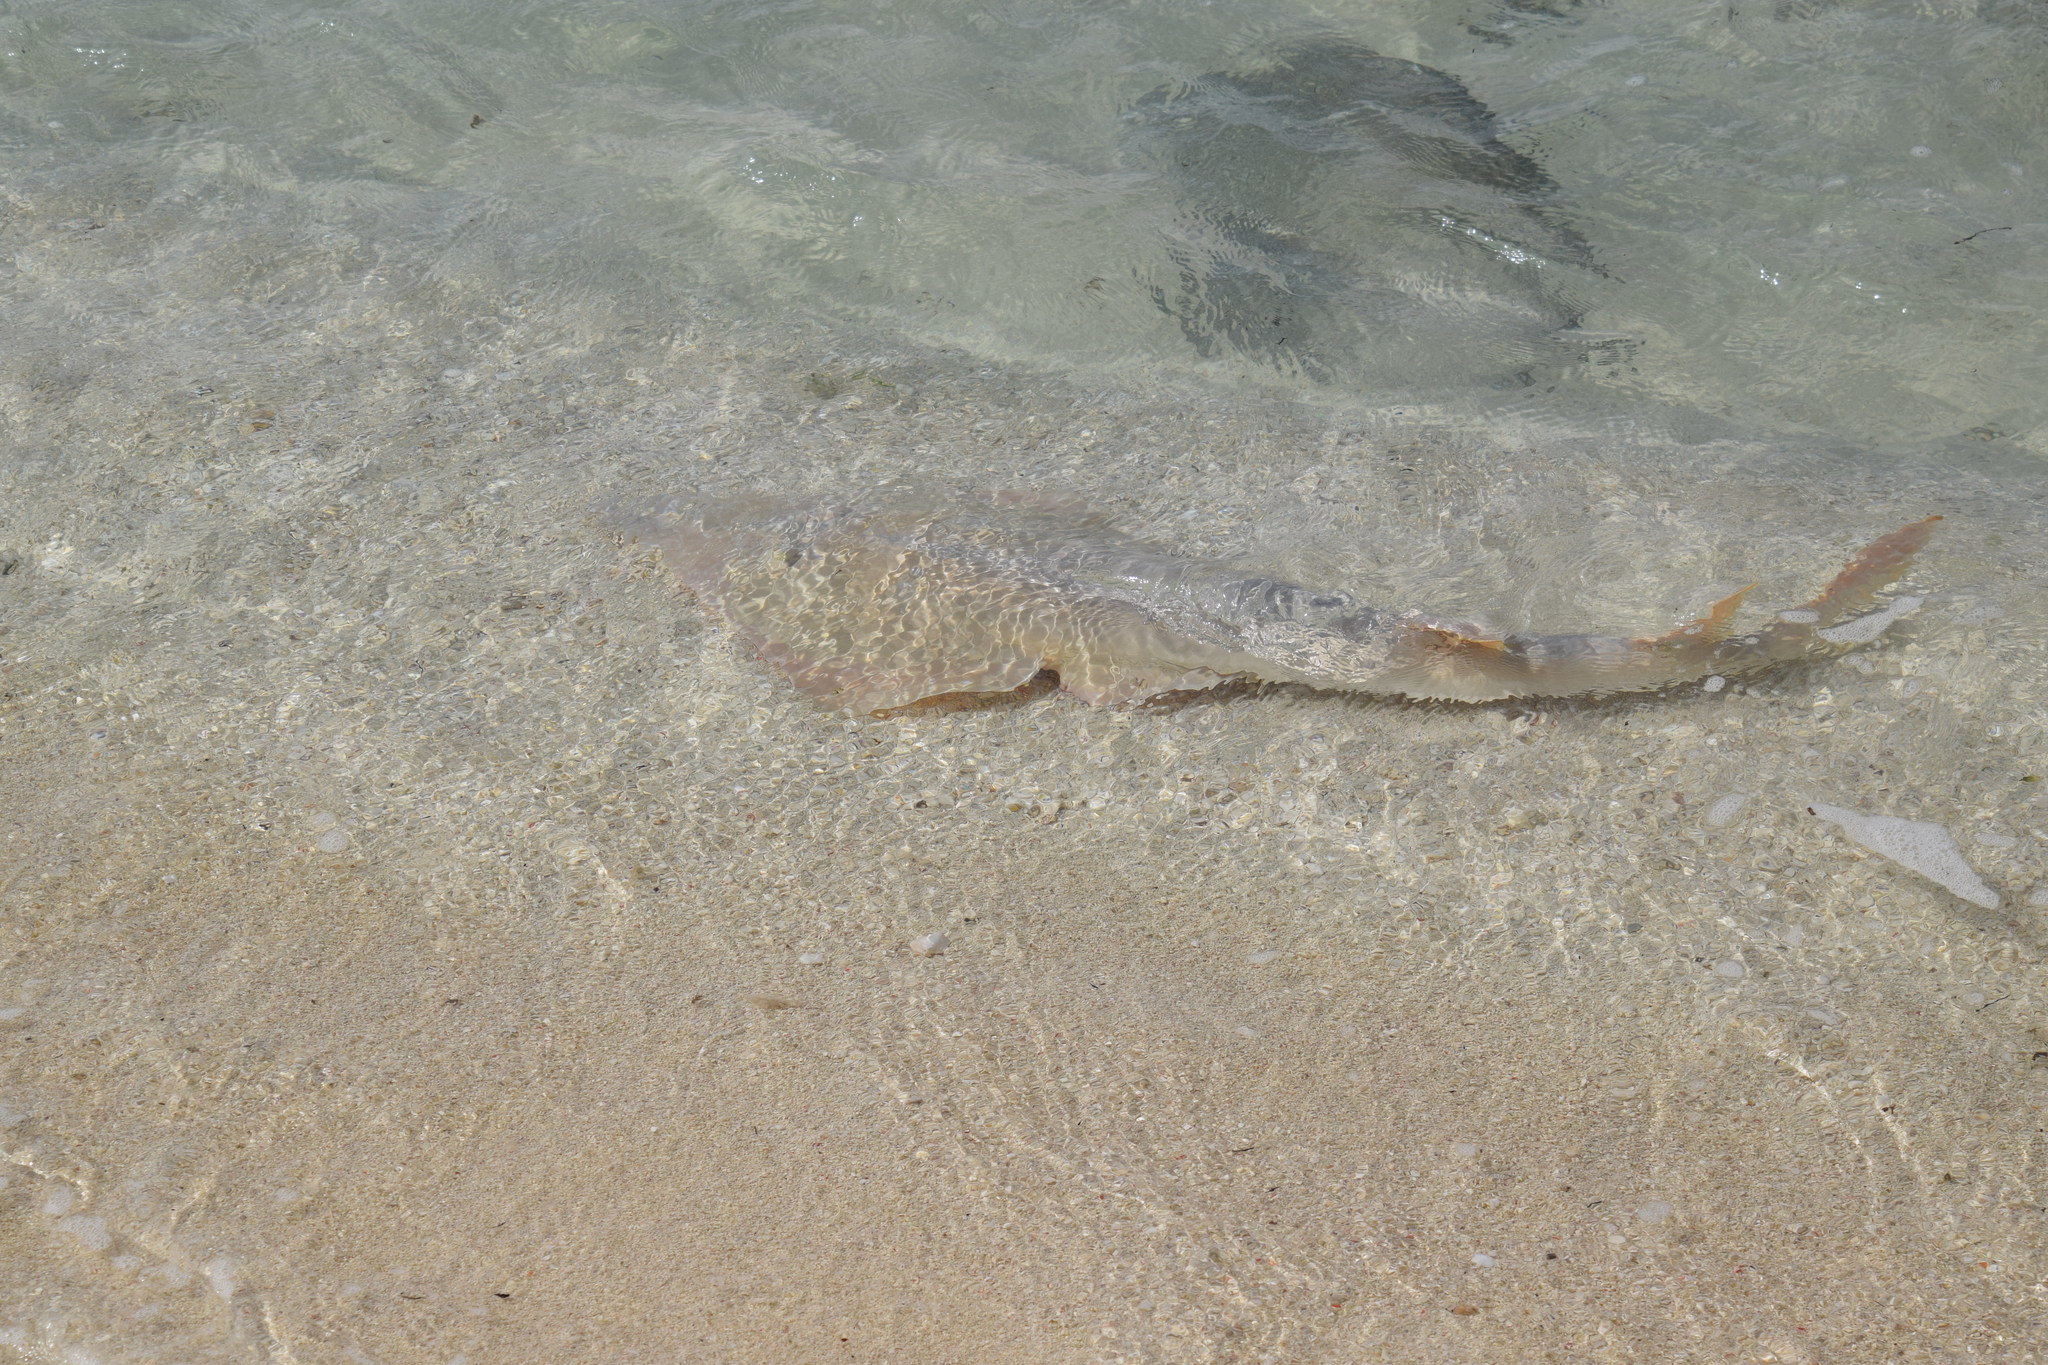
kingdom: Animalia
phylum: Chordata
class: Elasmobranchii
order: Rhinopristiformes
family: Glaucostegidae
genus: Glaucostegus
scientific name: Glaucostegus typus
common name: Giant shovelnose ray
